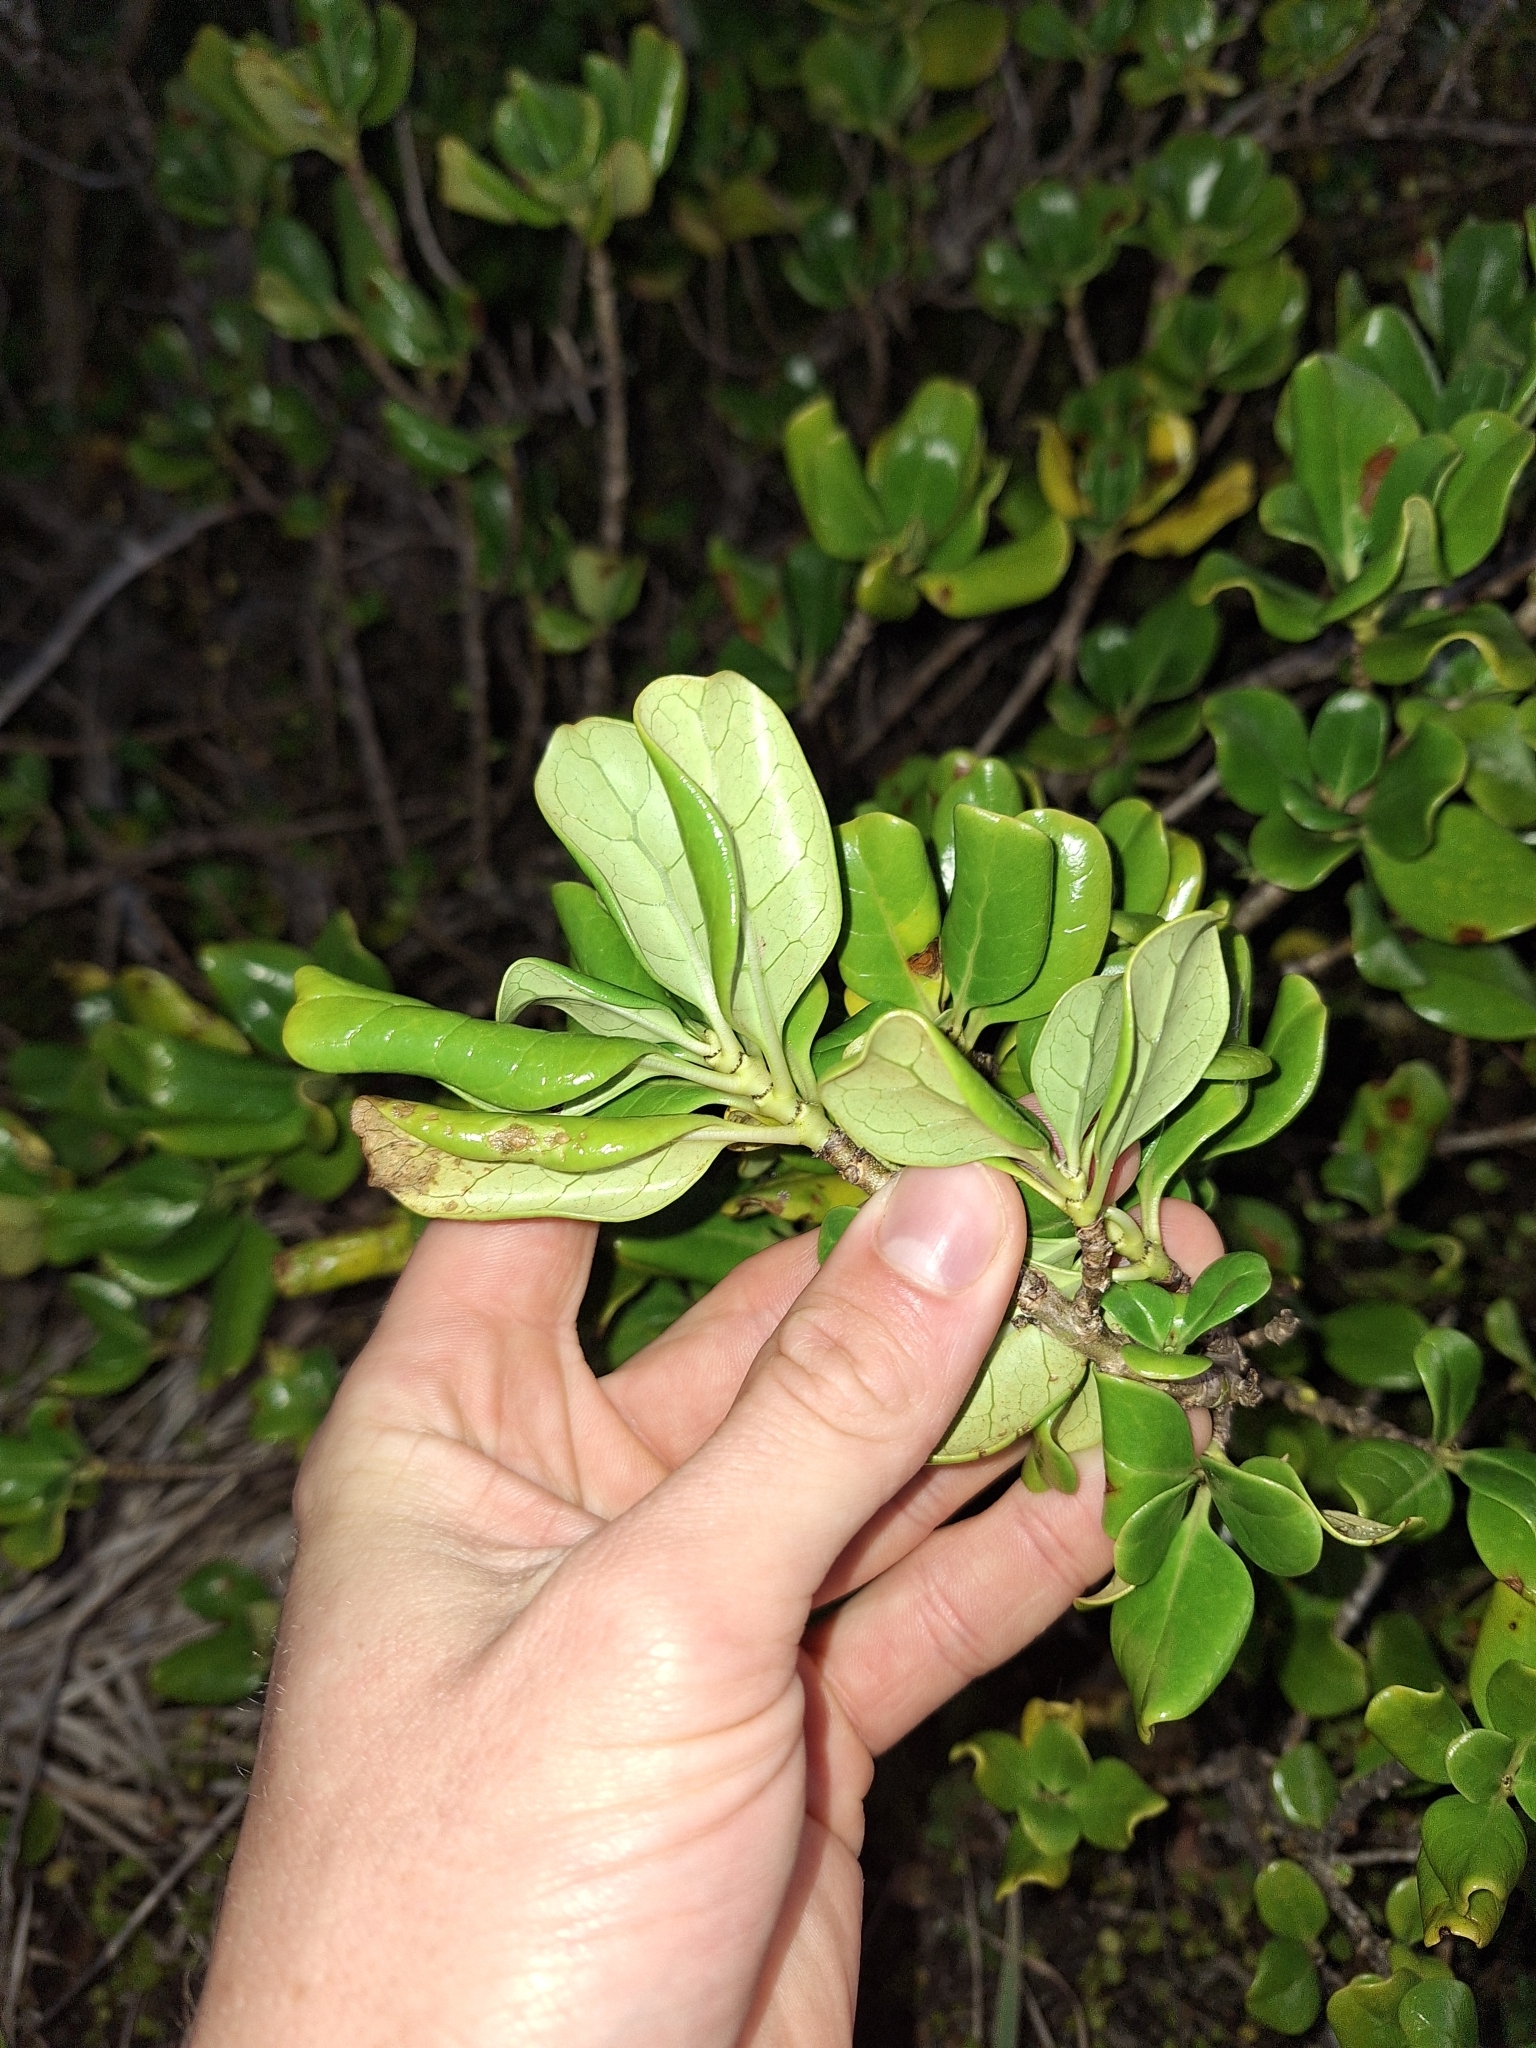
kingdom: Plantae
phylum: Tracheophyta
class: Magnoliopsida
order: Gentianales
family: Rubiaceae
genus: Coprosma
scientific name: Coprosma repens
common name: Tree bedstraw
